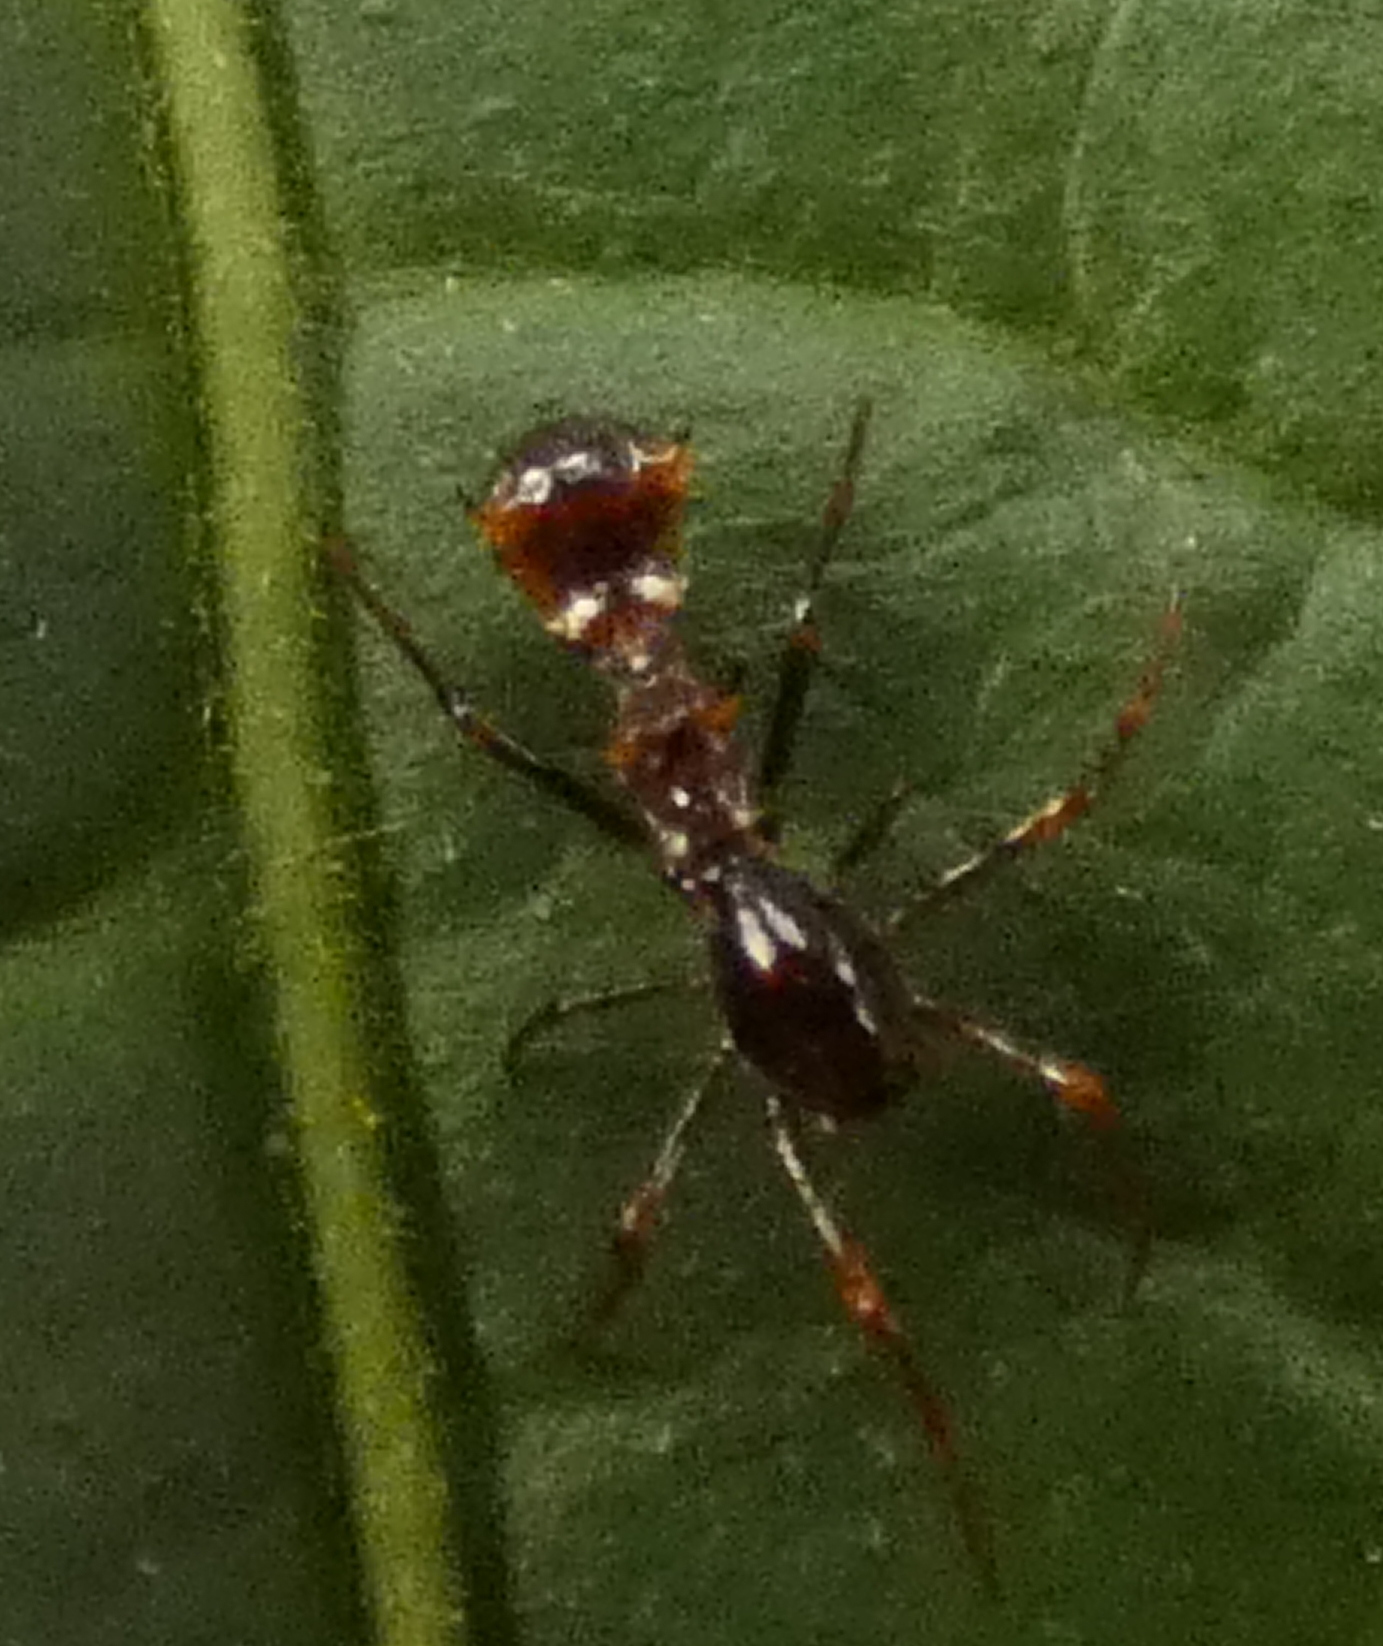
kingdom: Animalia
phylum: Arthropoda
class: Arachnida
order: Araneae
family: Araneidae
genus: Micrathena
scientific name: Micrathena schreibersi
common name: Orb weavers
